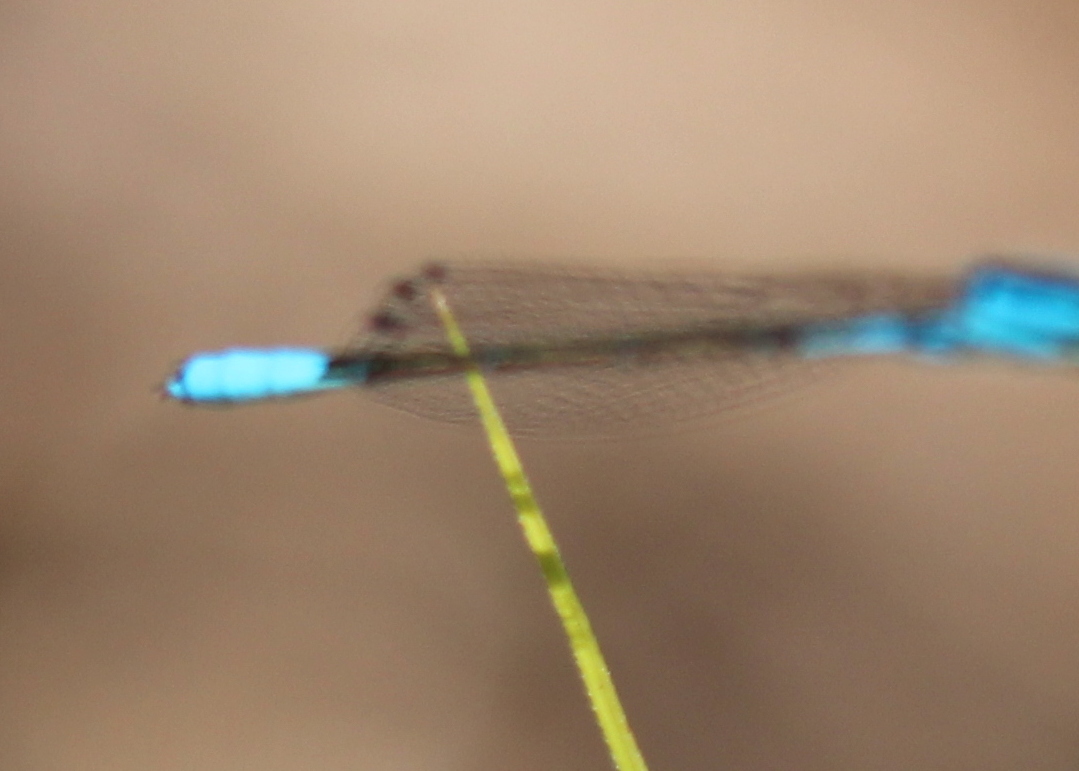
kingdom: Animalia
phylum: Arthropoda
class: Insecta
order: Odonata
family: Coenagrionidae
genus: Enallagma
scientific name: Enallagma aspersum
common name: Azure bluet
